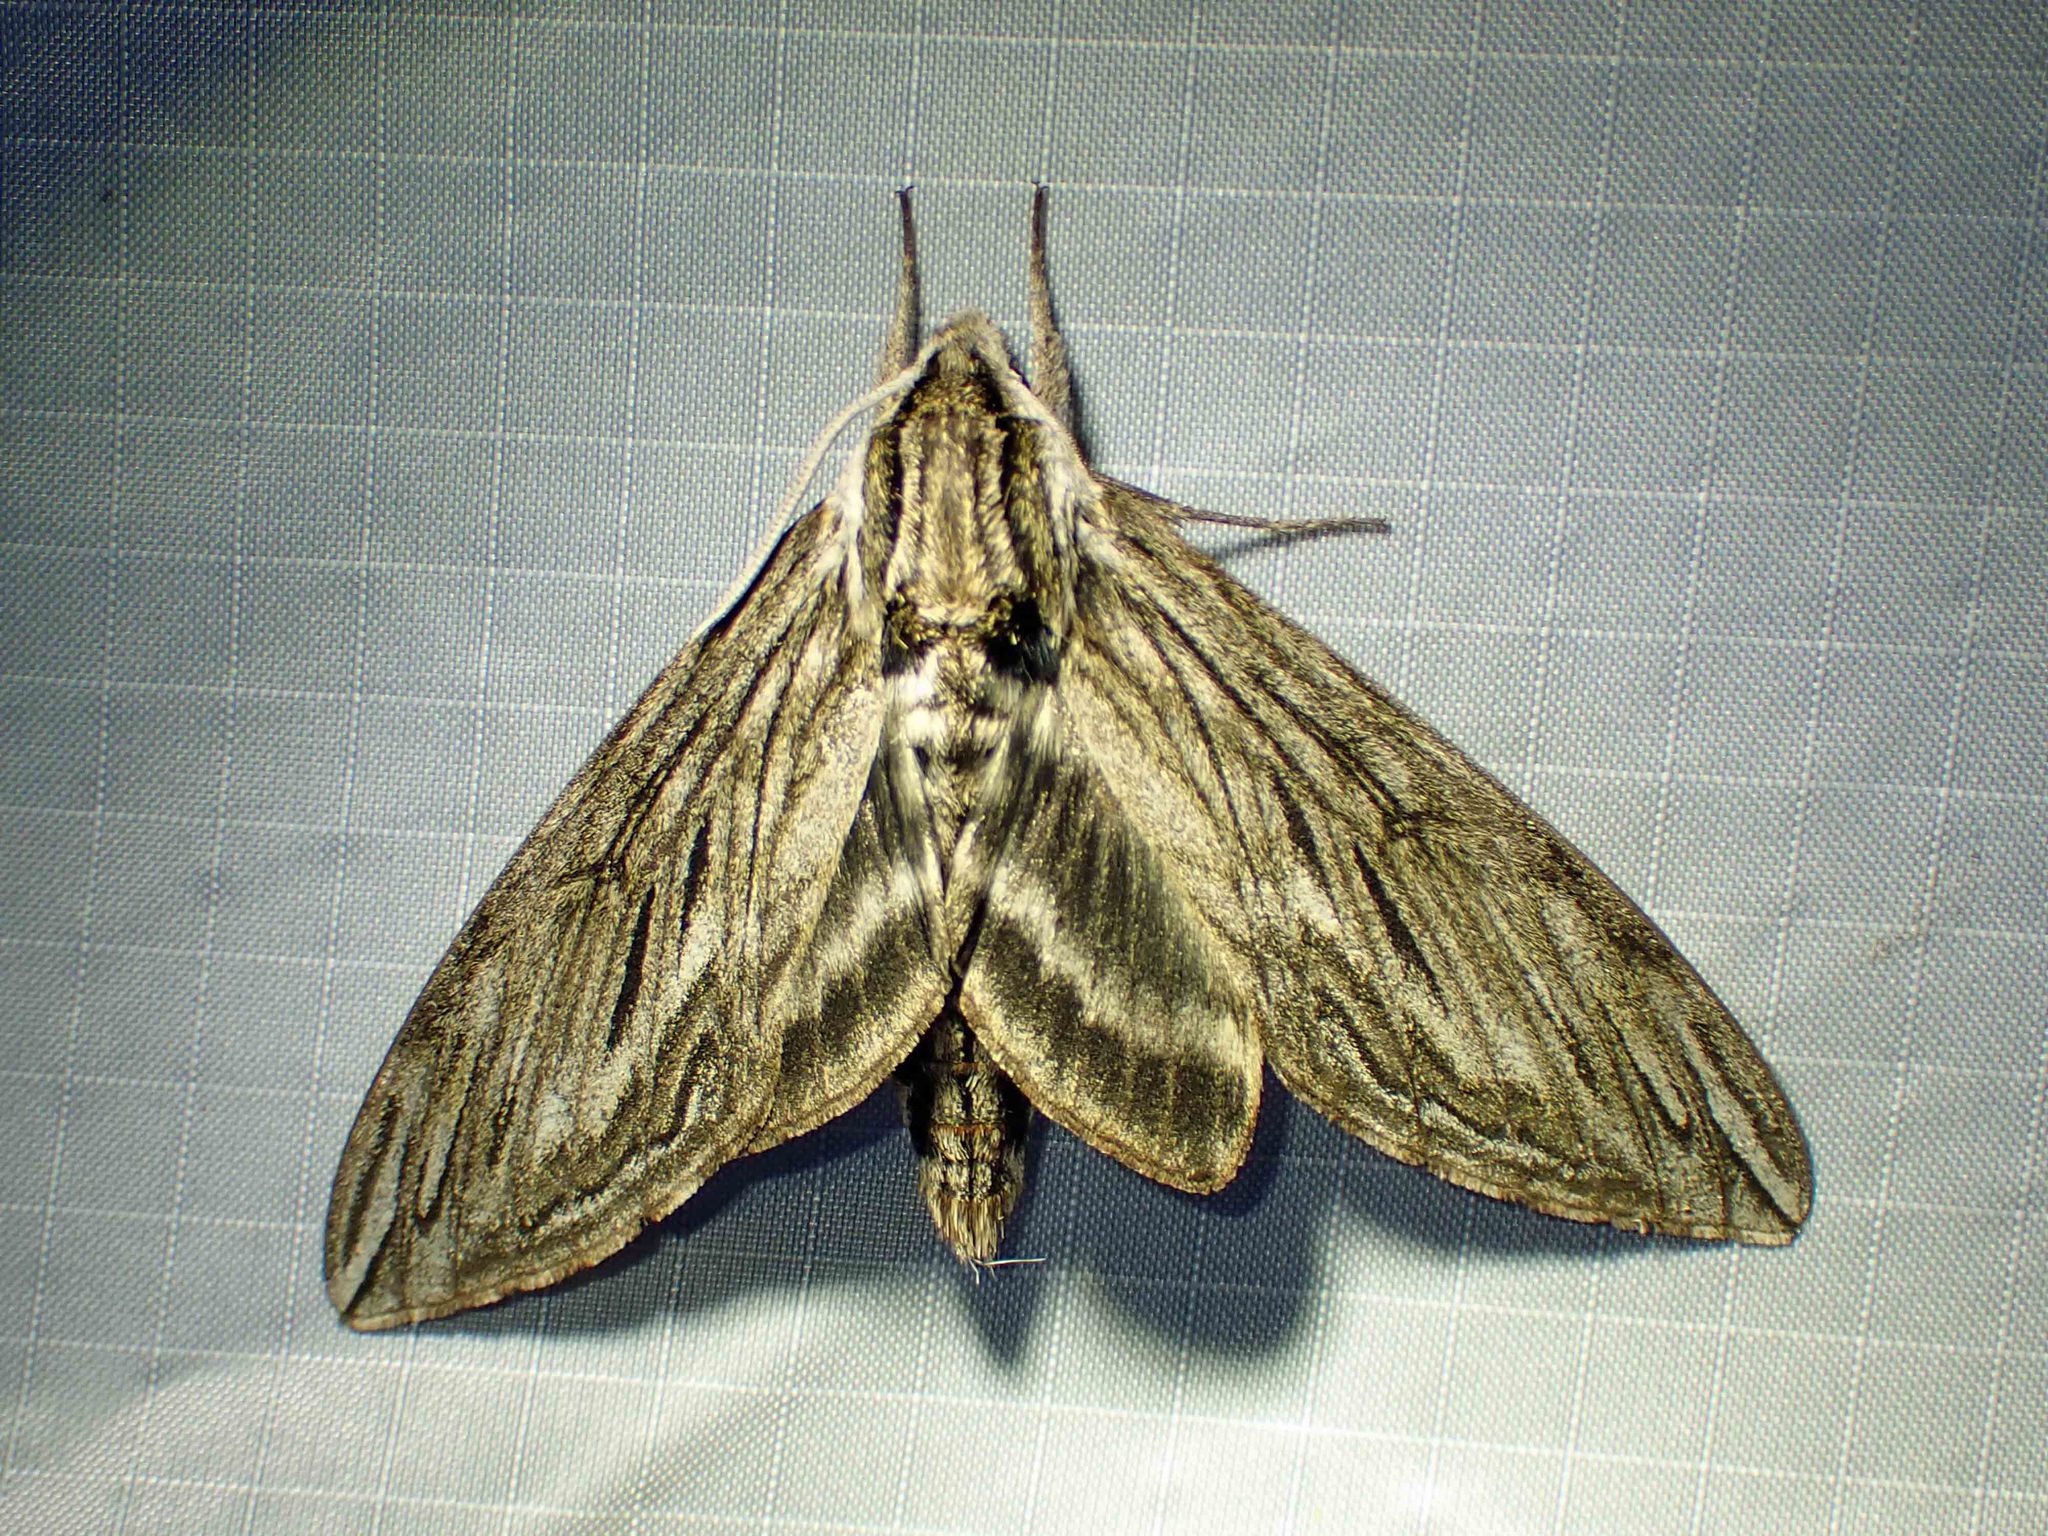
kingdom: Animalia
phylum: Arthropoda
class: Insecta
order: Lepidoptera
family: Sphingidae
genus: Sphinx
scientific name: Sphinx canadensis
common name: Canadian sphinx
